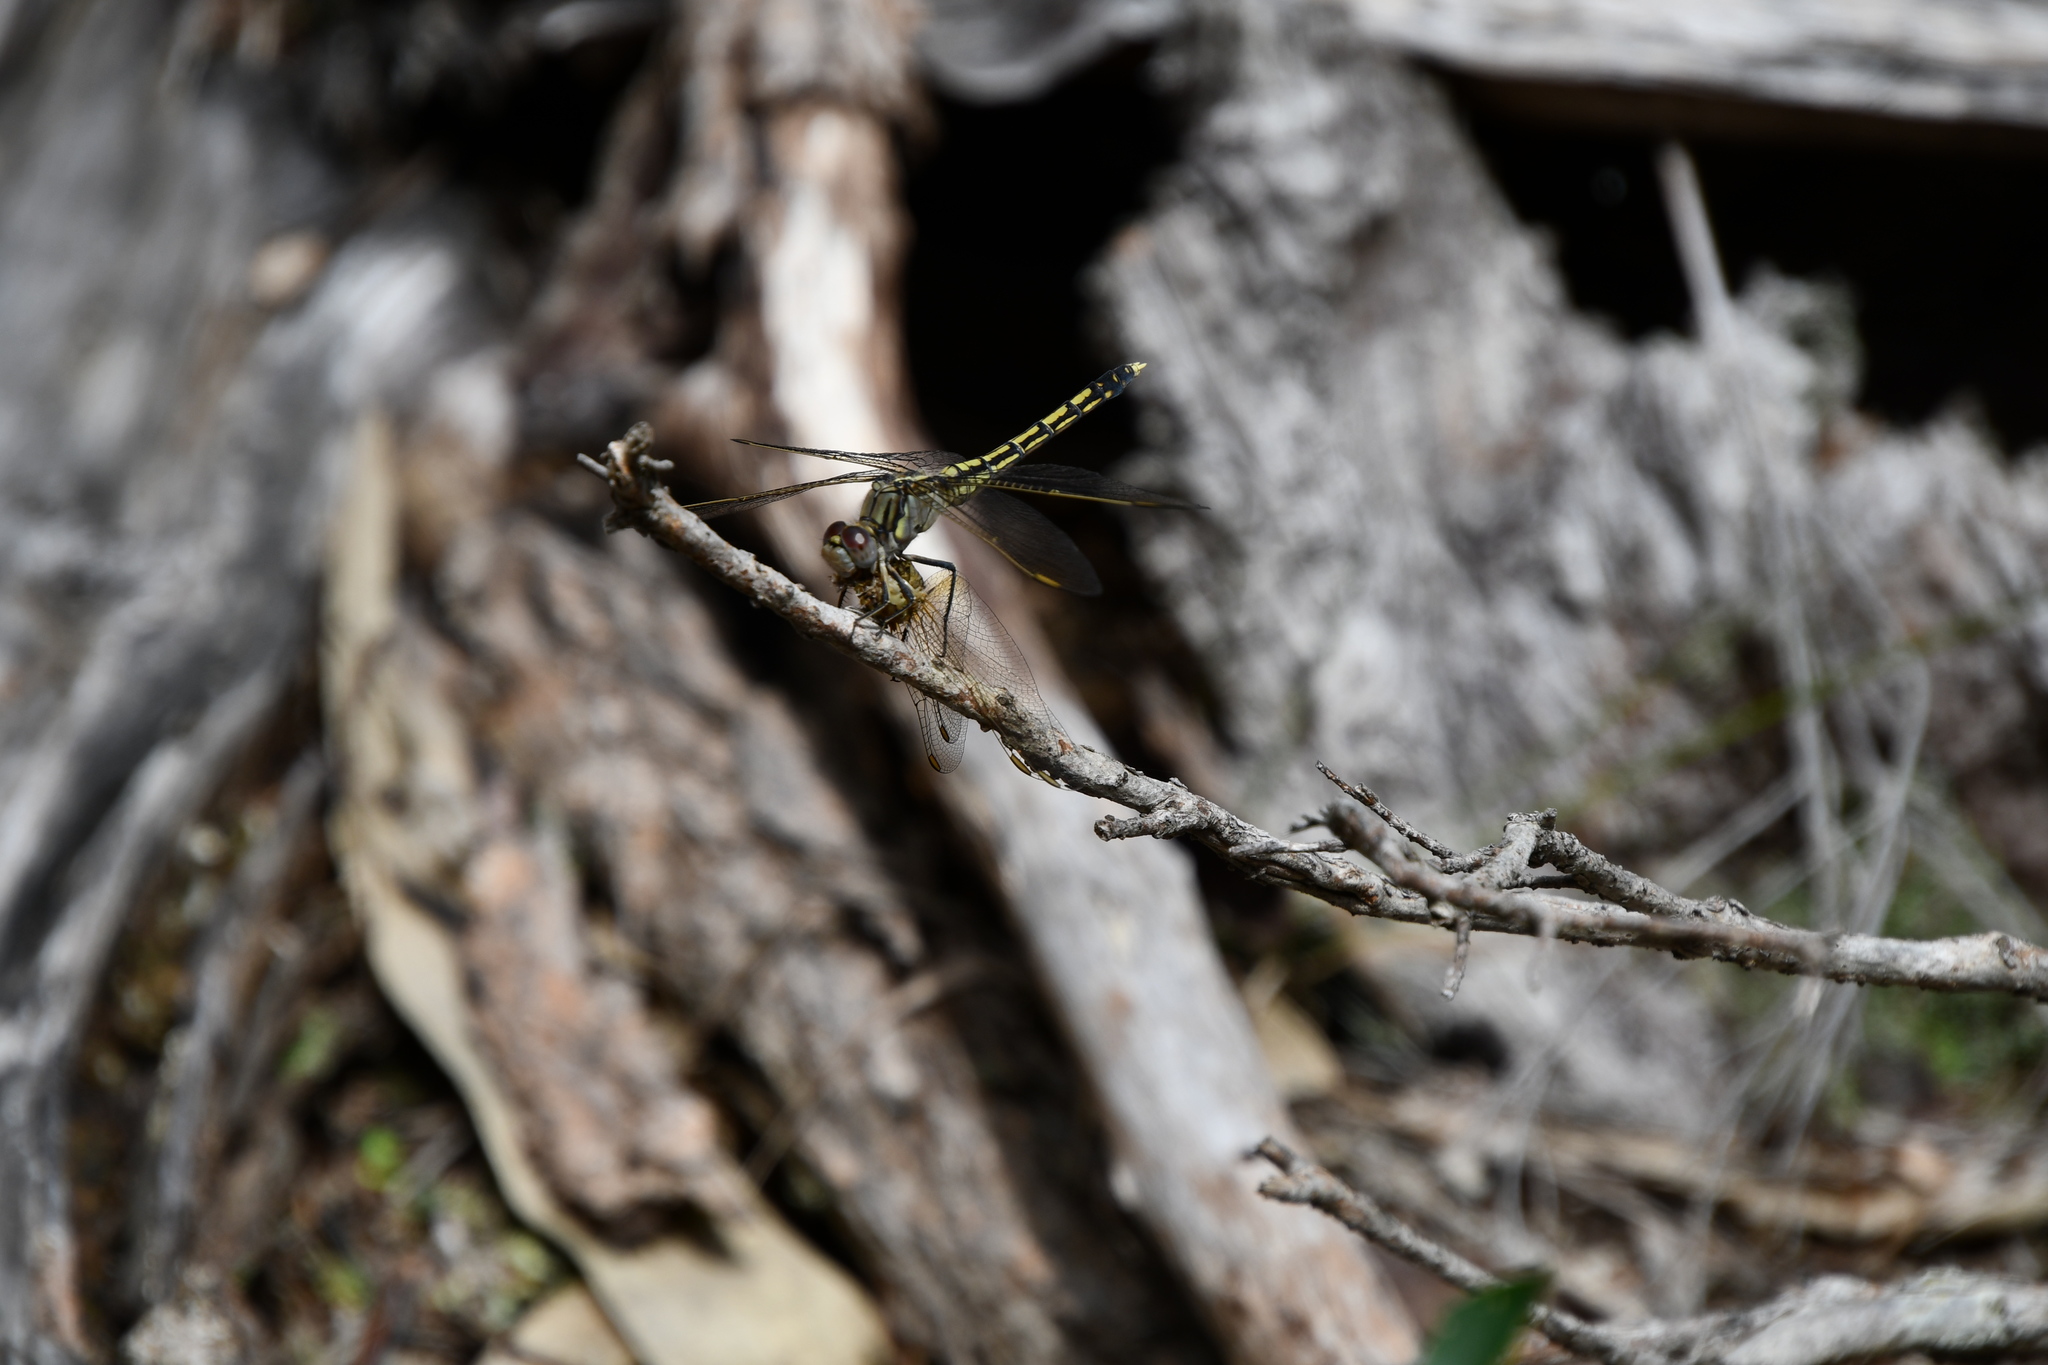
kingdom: Animalia
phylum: Arthropoda
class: Insecta
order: Odonata
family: Libellulidae
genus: Orthetrum
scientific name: Orthetrum caledonicum
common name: Blue skimmer
